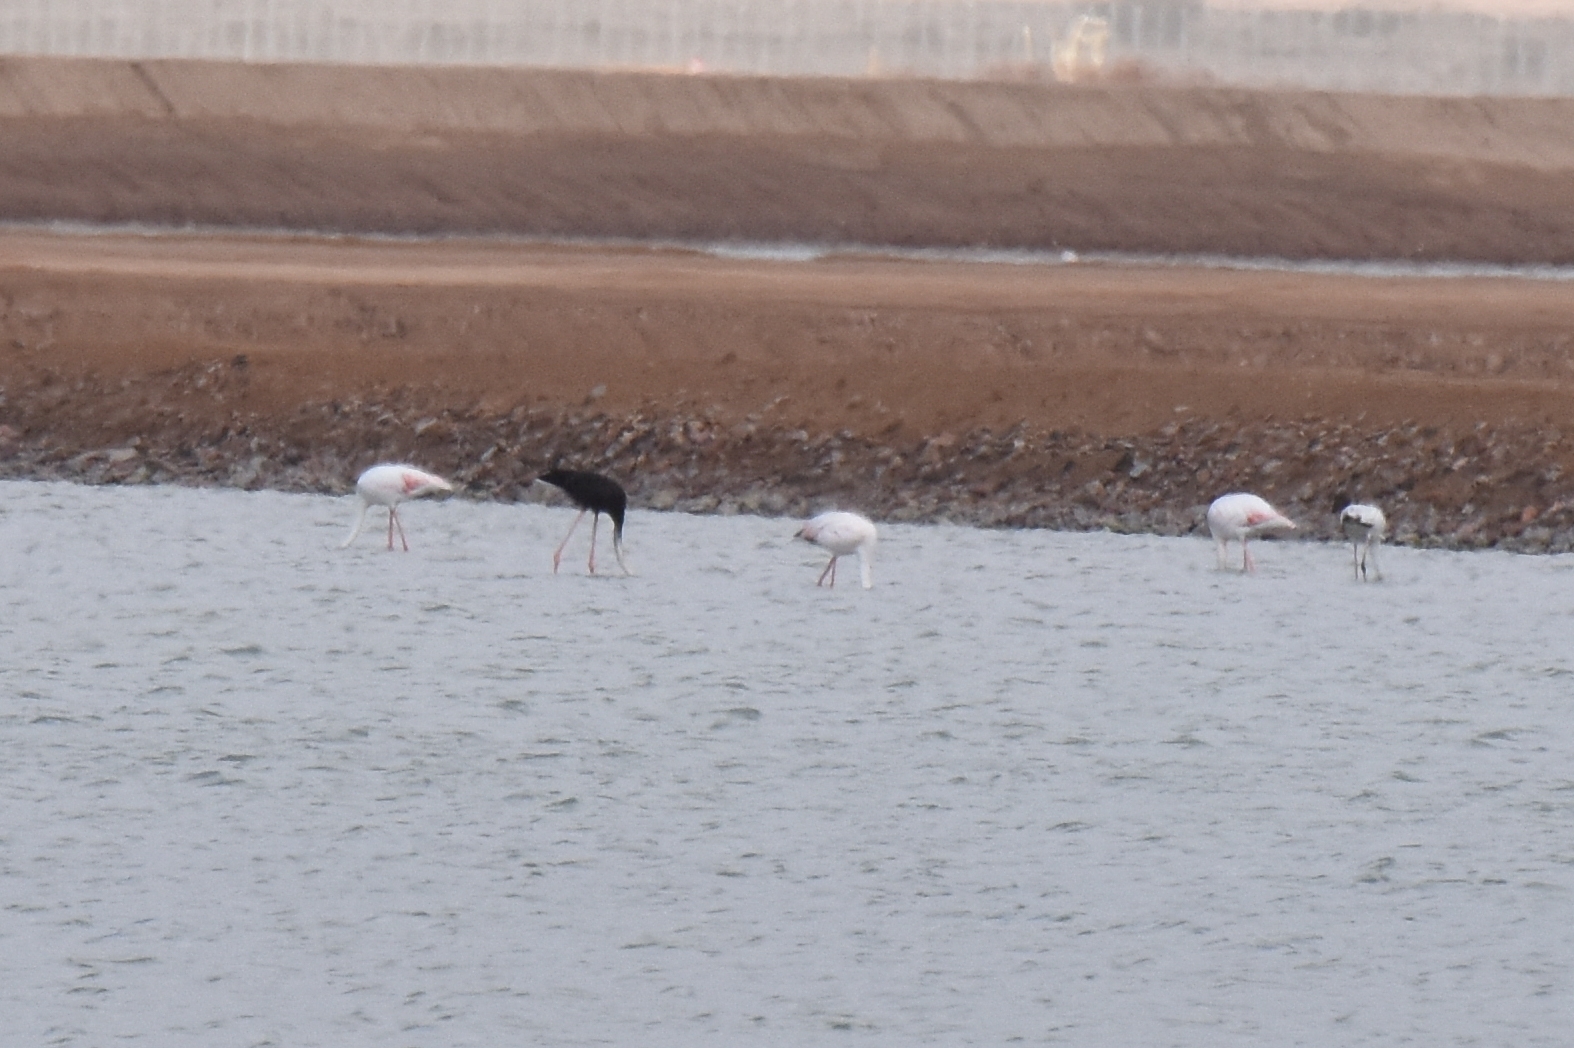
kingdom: Animalia
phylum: Chordata
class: Aves
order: Phoenicopteriformes
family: Phoenicopteridae
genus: Phoenicopterus
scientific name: Phoenicopterus roseus
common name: Greater flamingo
